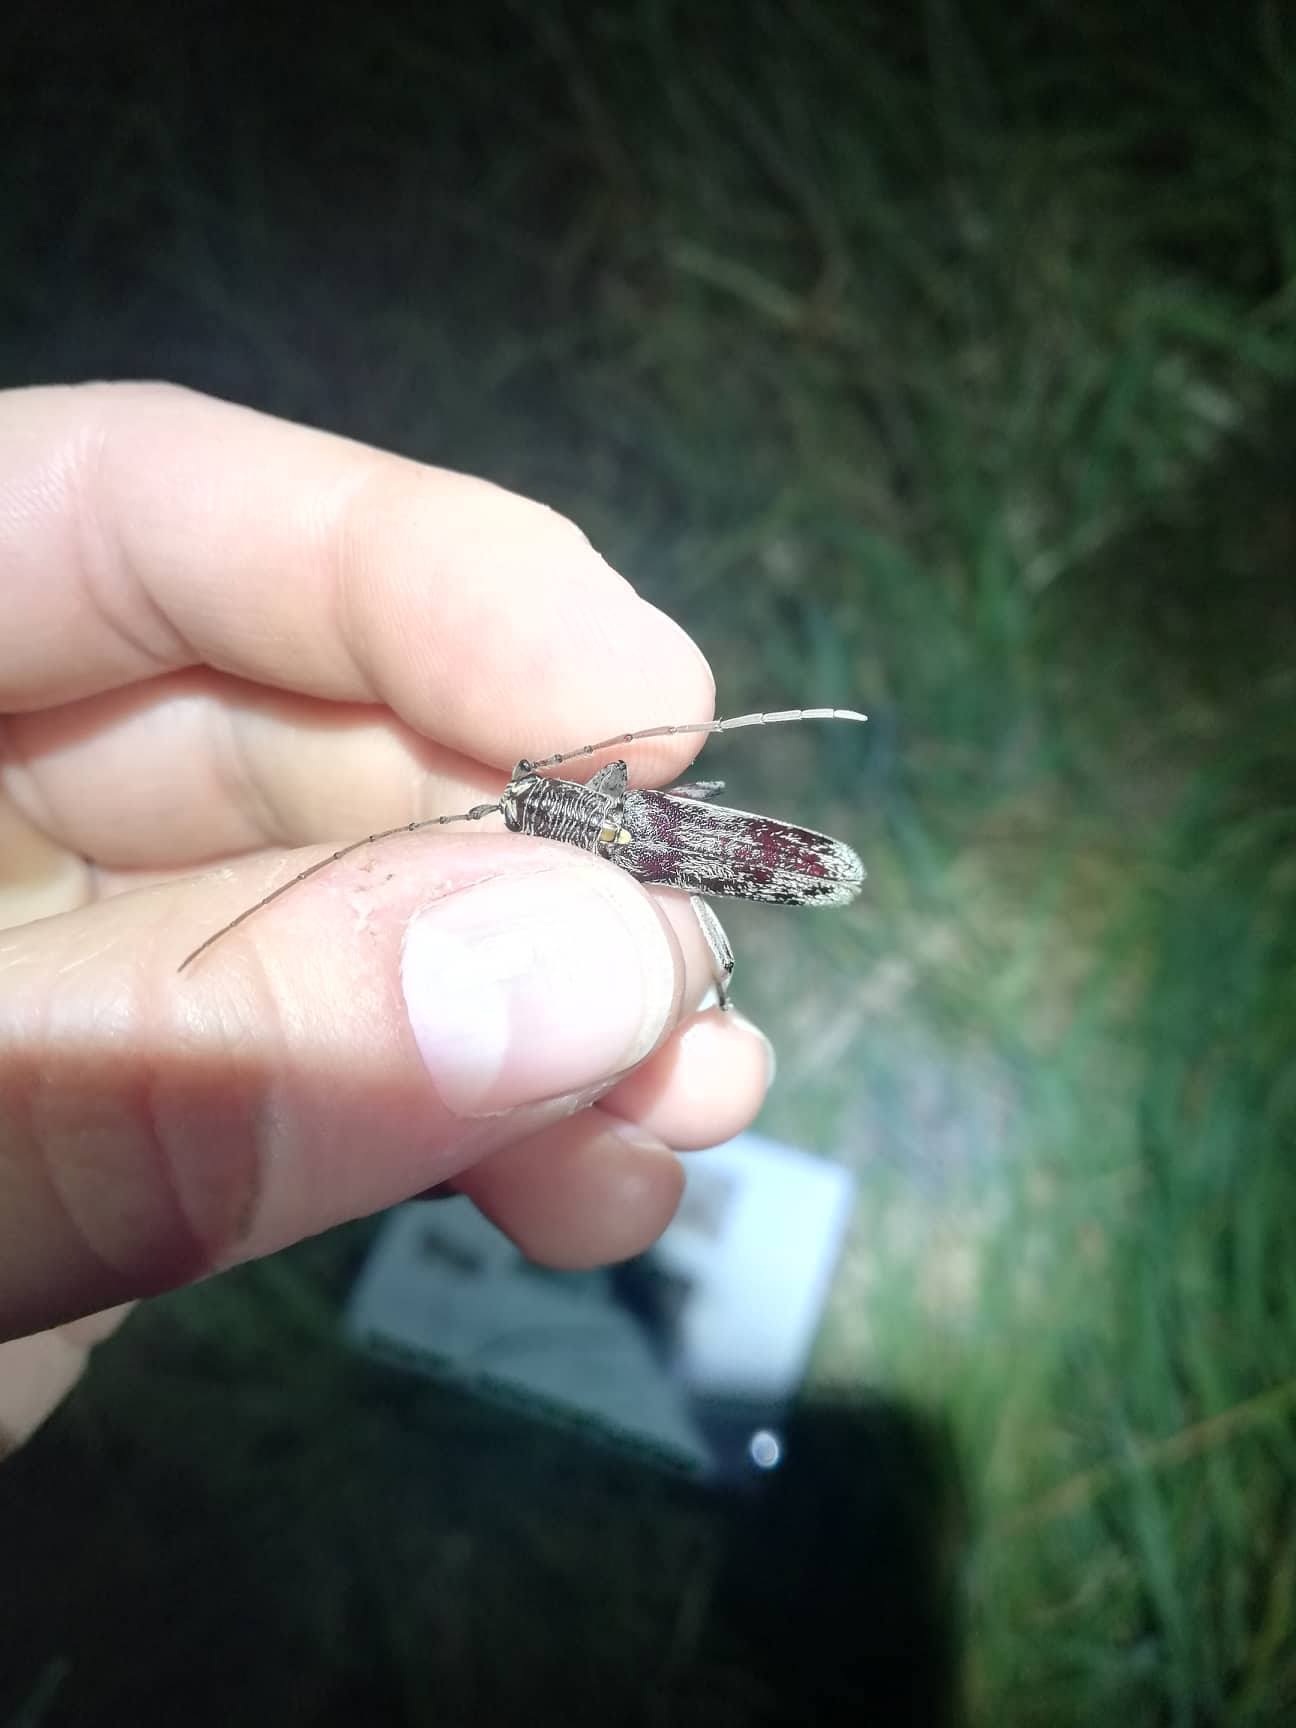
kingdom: Animalia
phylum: Arthropoda
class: Insecta
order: Coleoptera
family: Cerambycidae
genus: Oemona
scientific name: Oemona hirta
